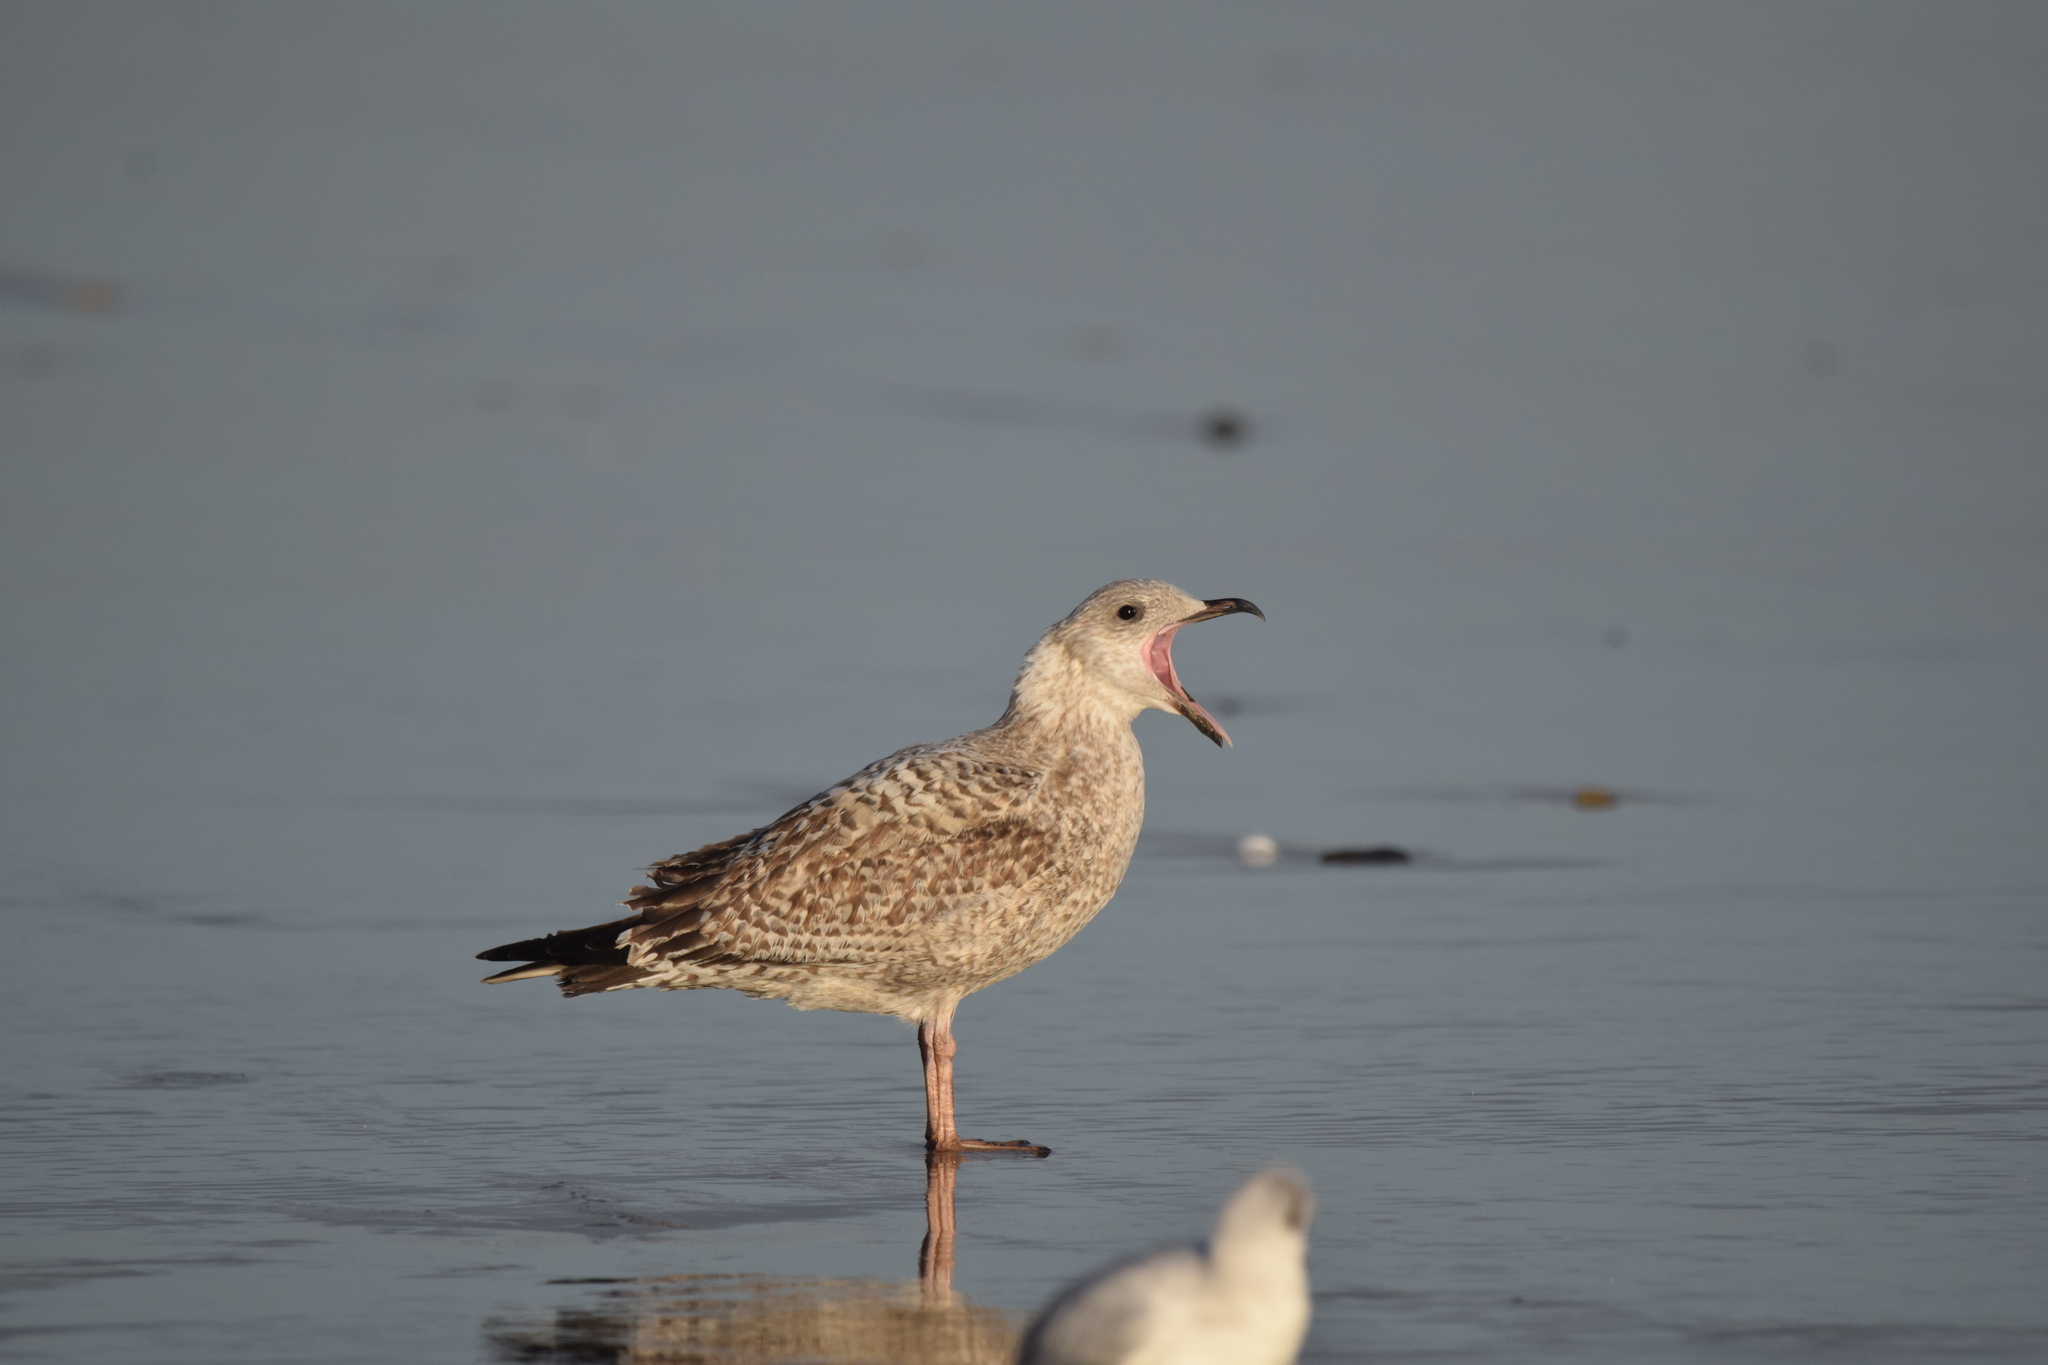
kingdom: Animalia
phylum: Chordata
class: Aves
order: Charadriiformes
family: Laridae
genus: Larus
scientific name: Larus argentatus
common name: Herring gull
